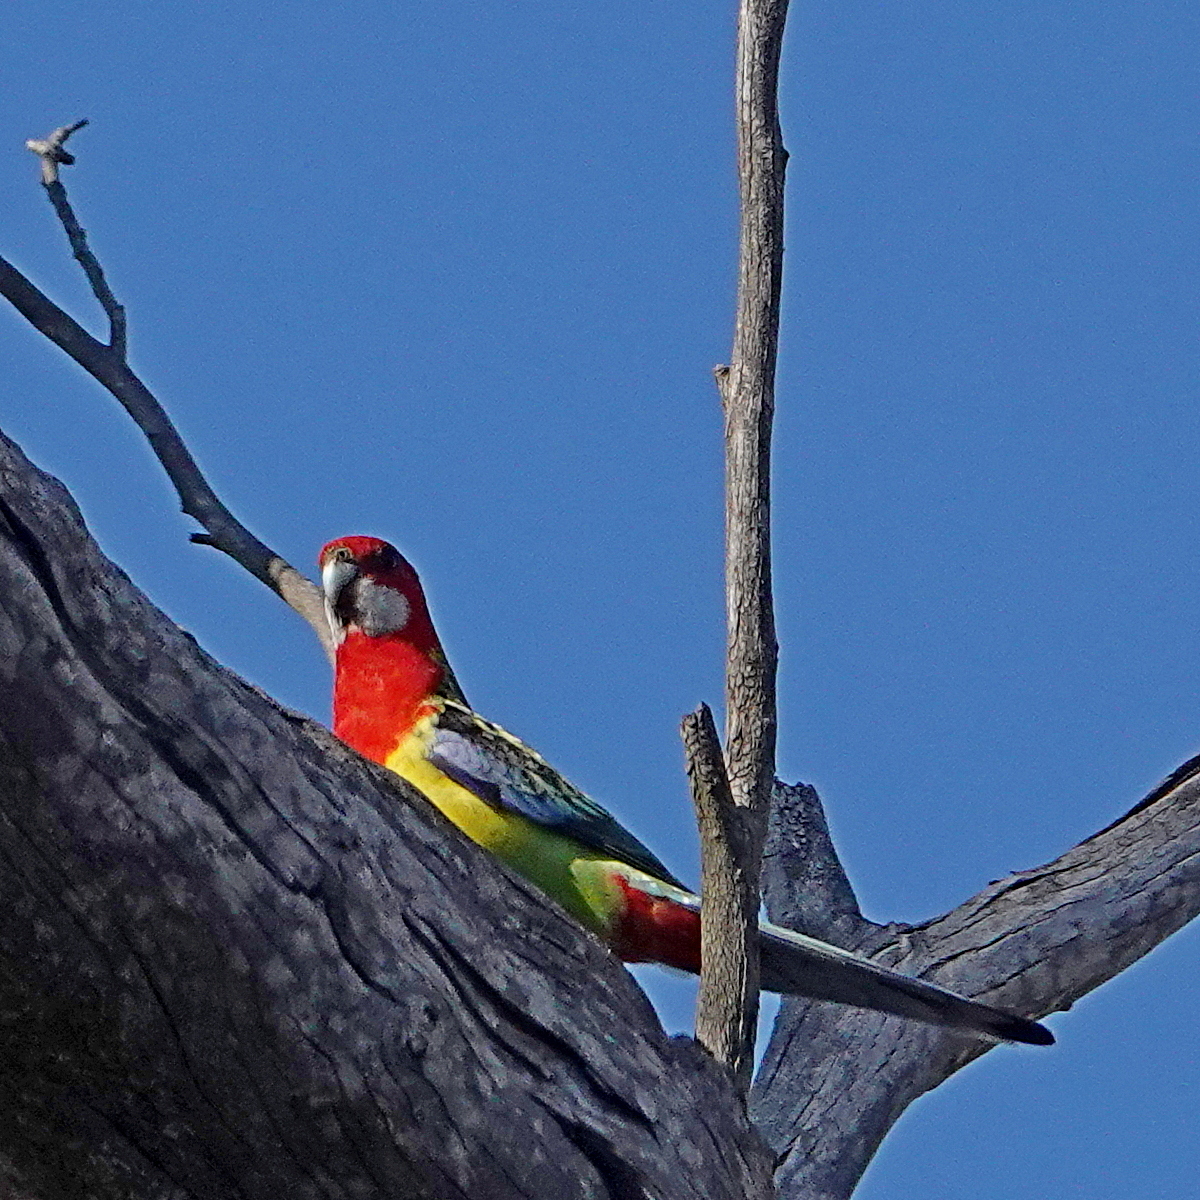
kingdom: Animalia
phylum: Chordata
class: Aves
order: Psittaciformes
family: Psittacidae
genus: Platycercus
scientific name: Platycercus eximius
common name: Eastern rosella
